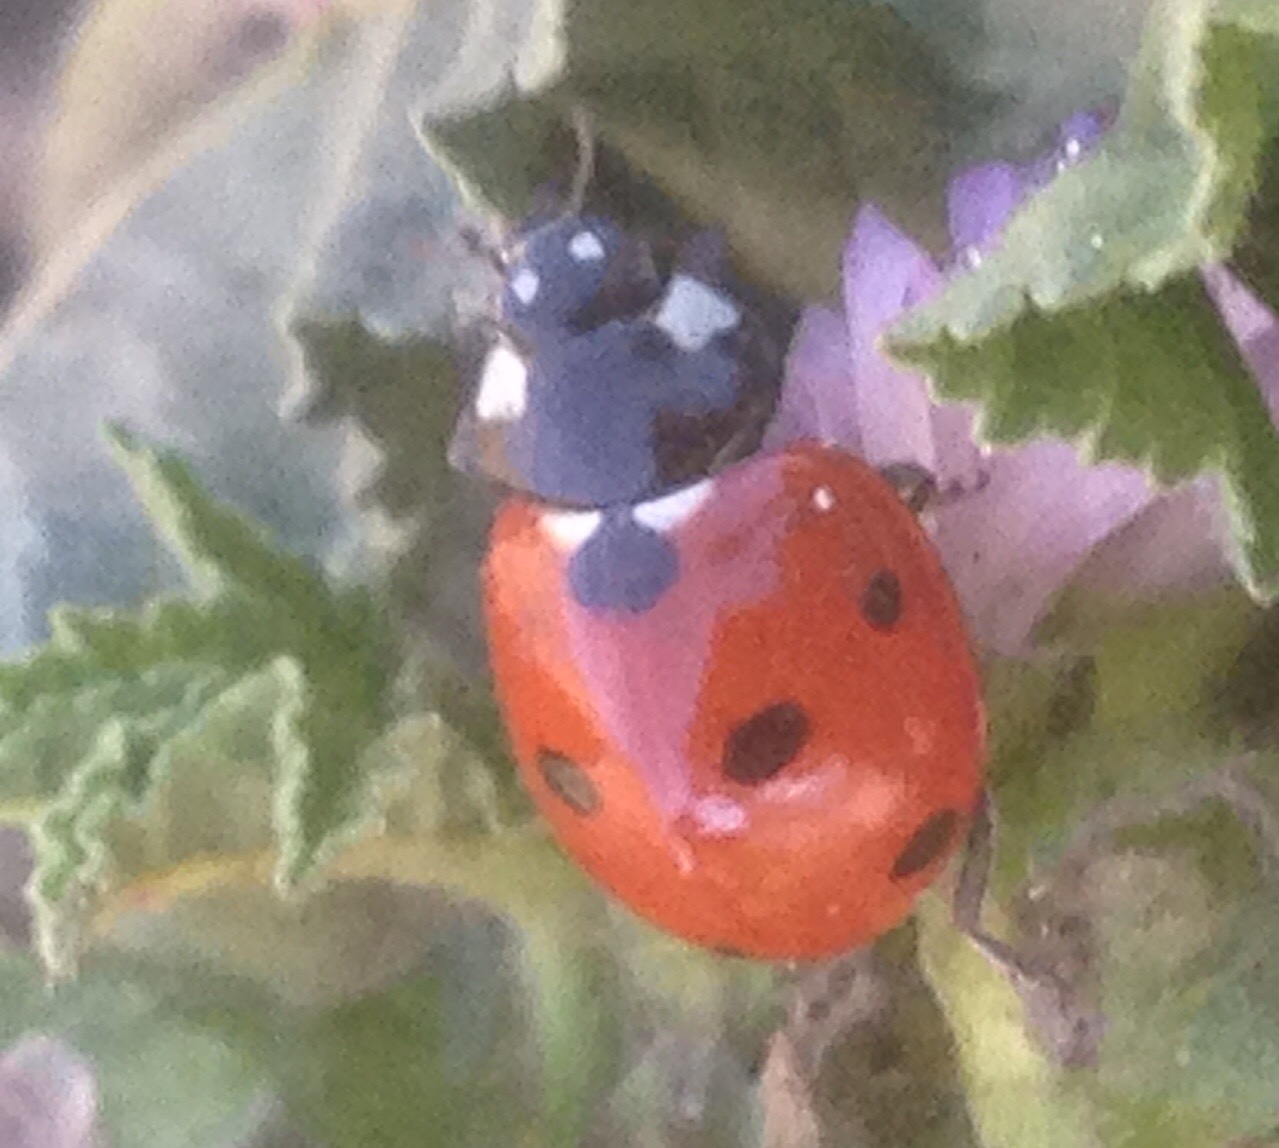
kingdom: Animalia
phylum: Arthropoda
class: Insecta
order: Coleoptera
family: Coccinellidae
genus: Coccinella
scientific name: Coccinella septempunctata
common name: Sevenspotted lady beetle
